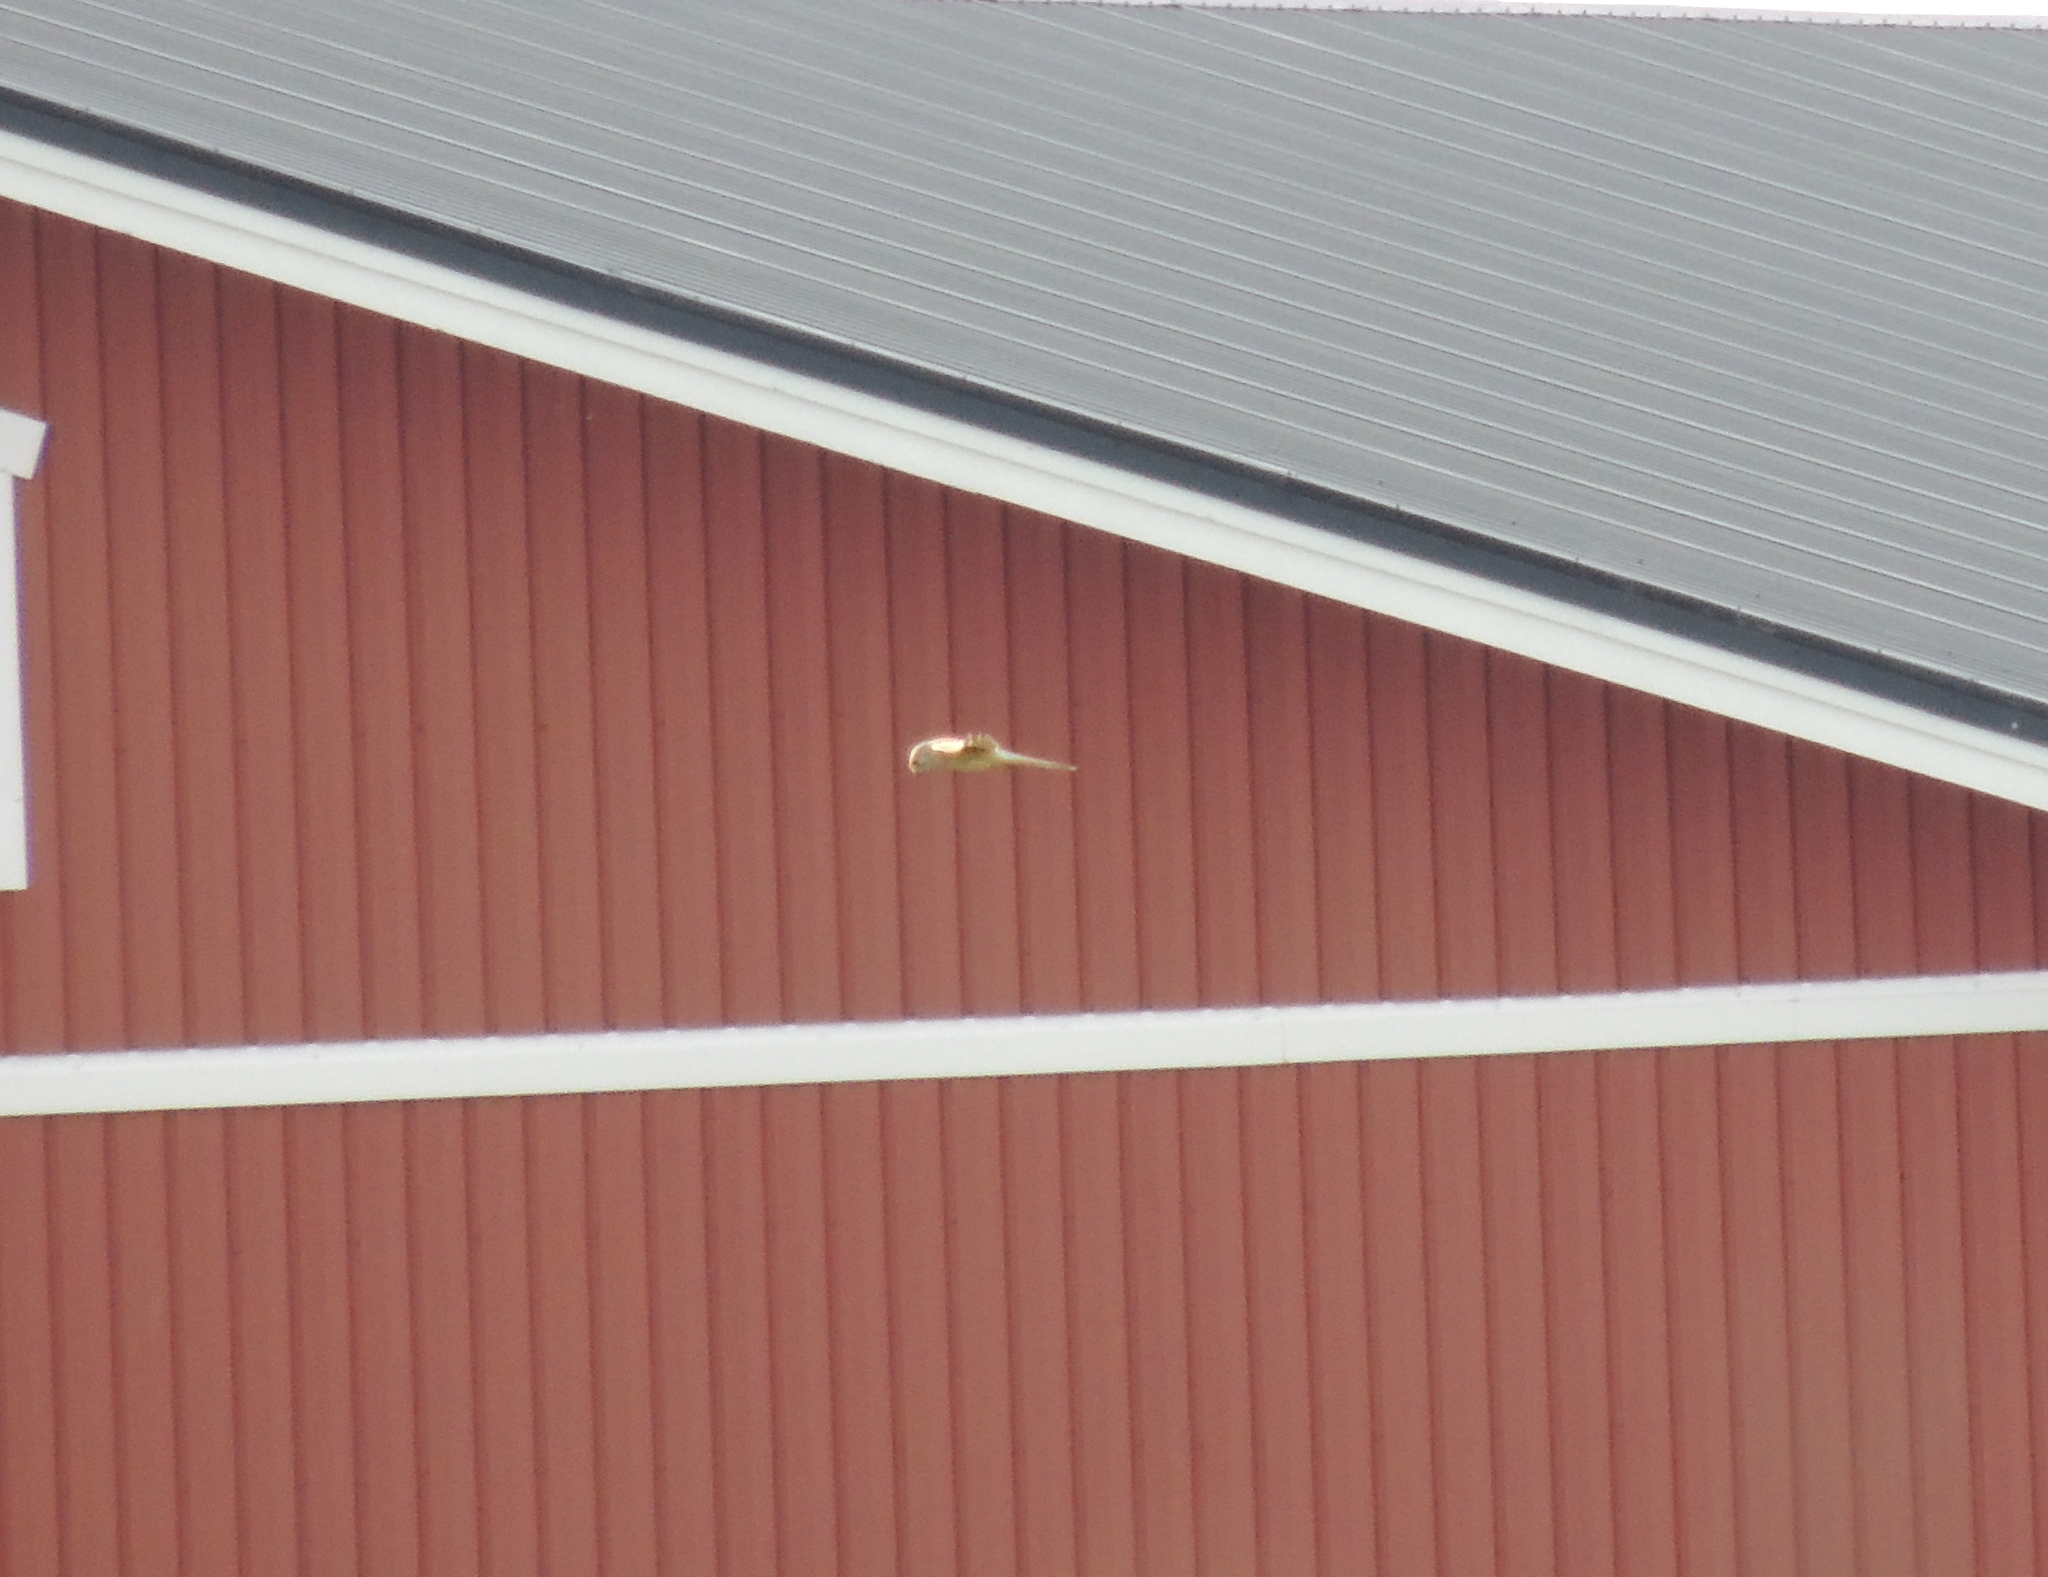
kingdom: Animalia
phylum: Chordata
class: Aves
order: Falconiformes
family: Falconidae
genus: Falco
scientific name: Falco tinnunculus
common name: Common kestrel
